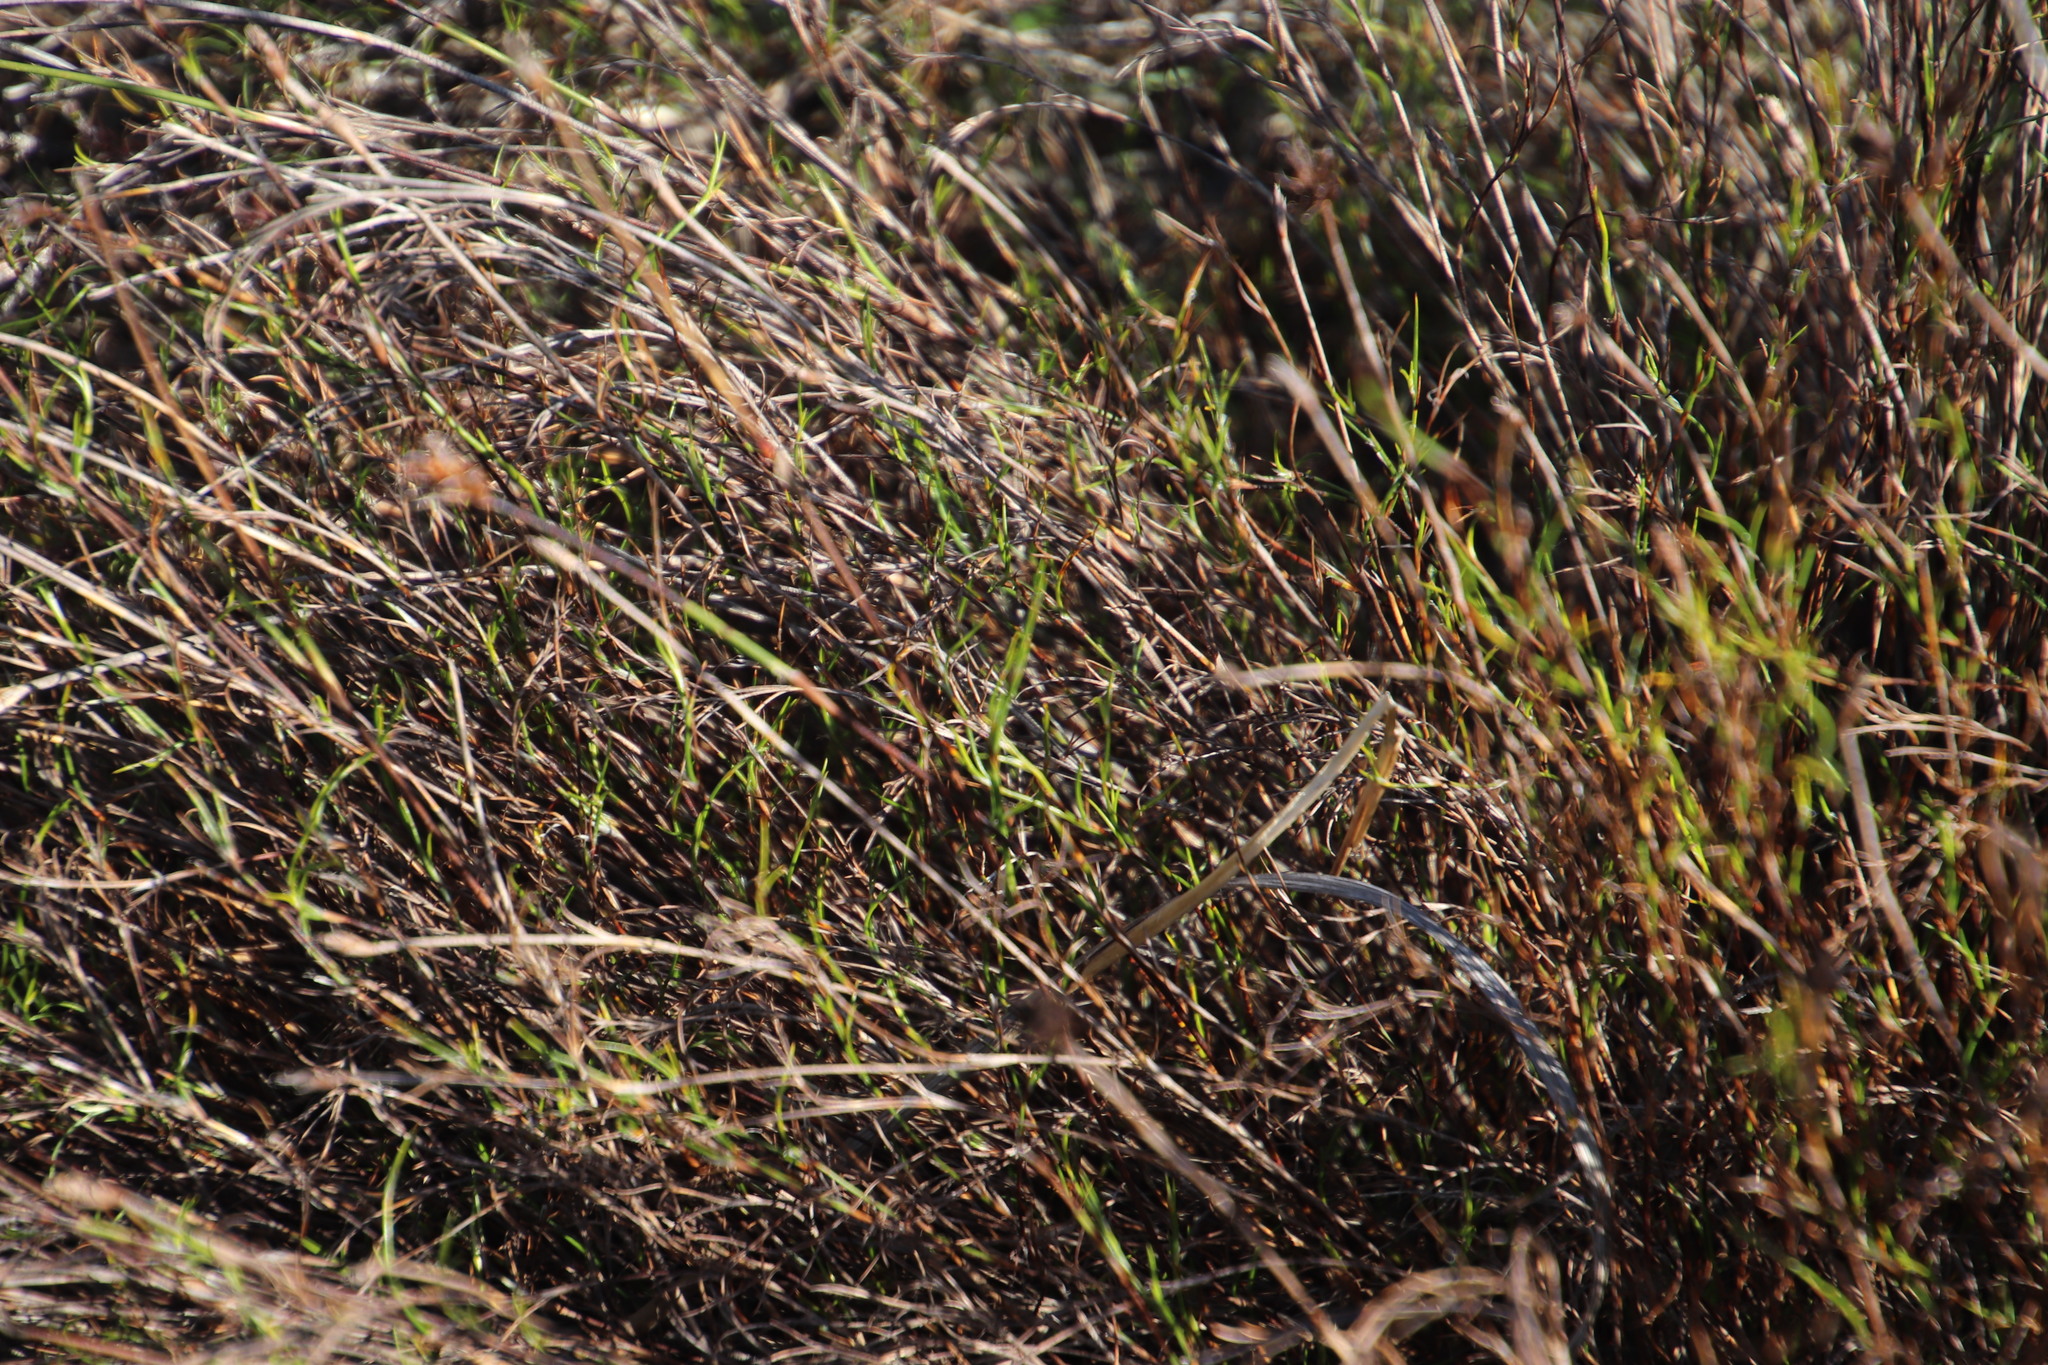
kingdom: Plantae
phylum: Tracheophyta
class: Liliopsida
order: Poales
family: Restionaceae
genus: Restio
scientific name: Restio capensis
